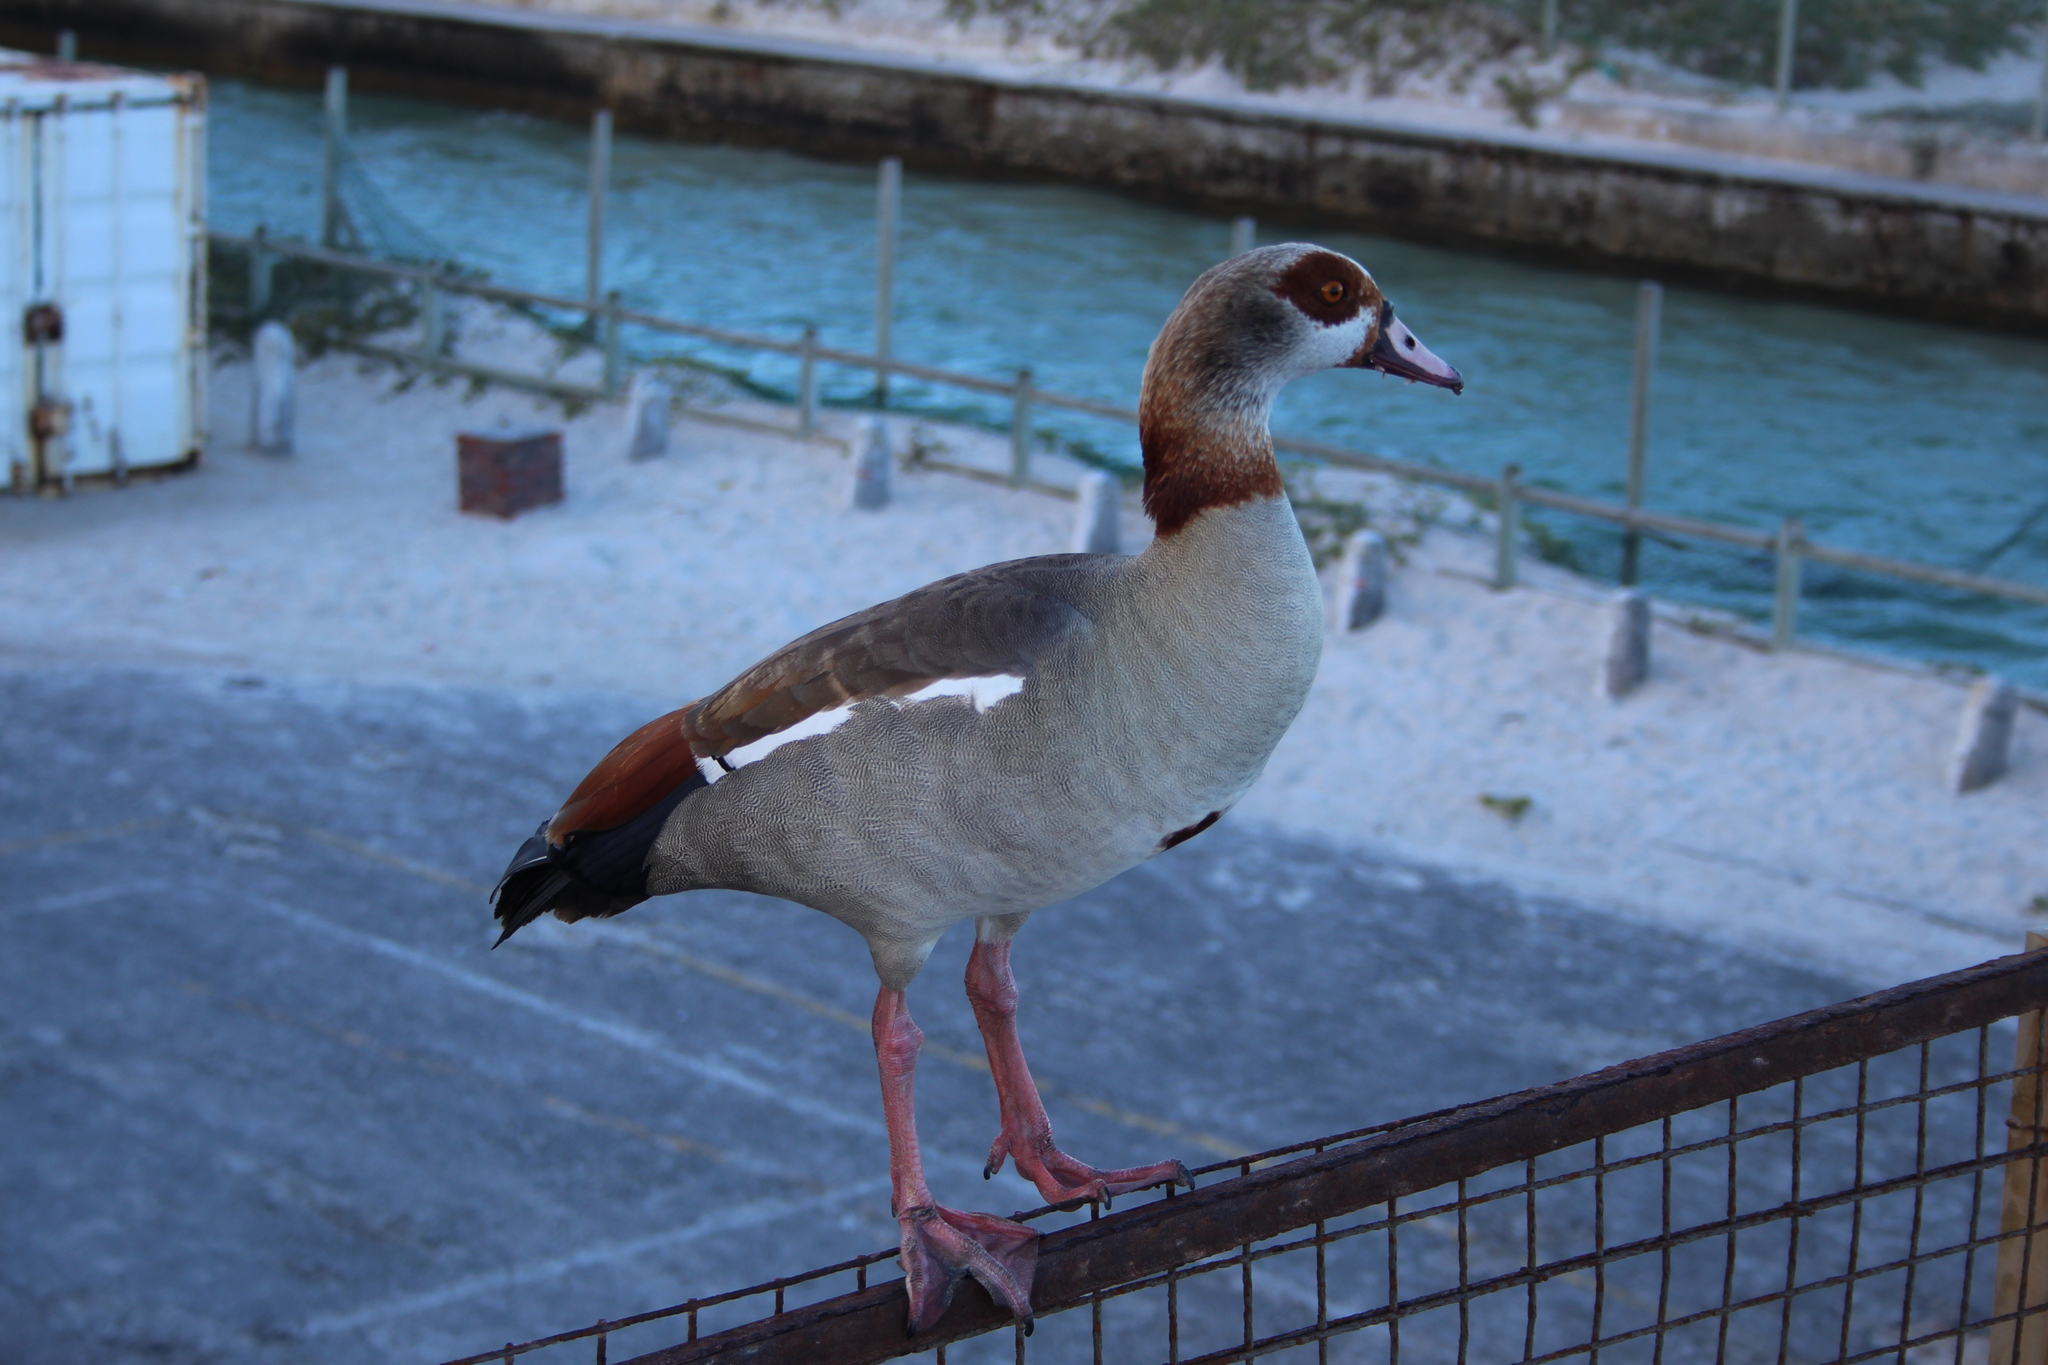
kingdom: Animalia
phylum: Chordata
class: Aves
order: Anseriformes
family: Anatidae
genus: Alopochen
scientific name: Alopochen aegyptiaca
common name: Egyptian goose
